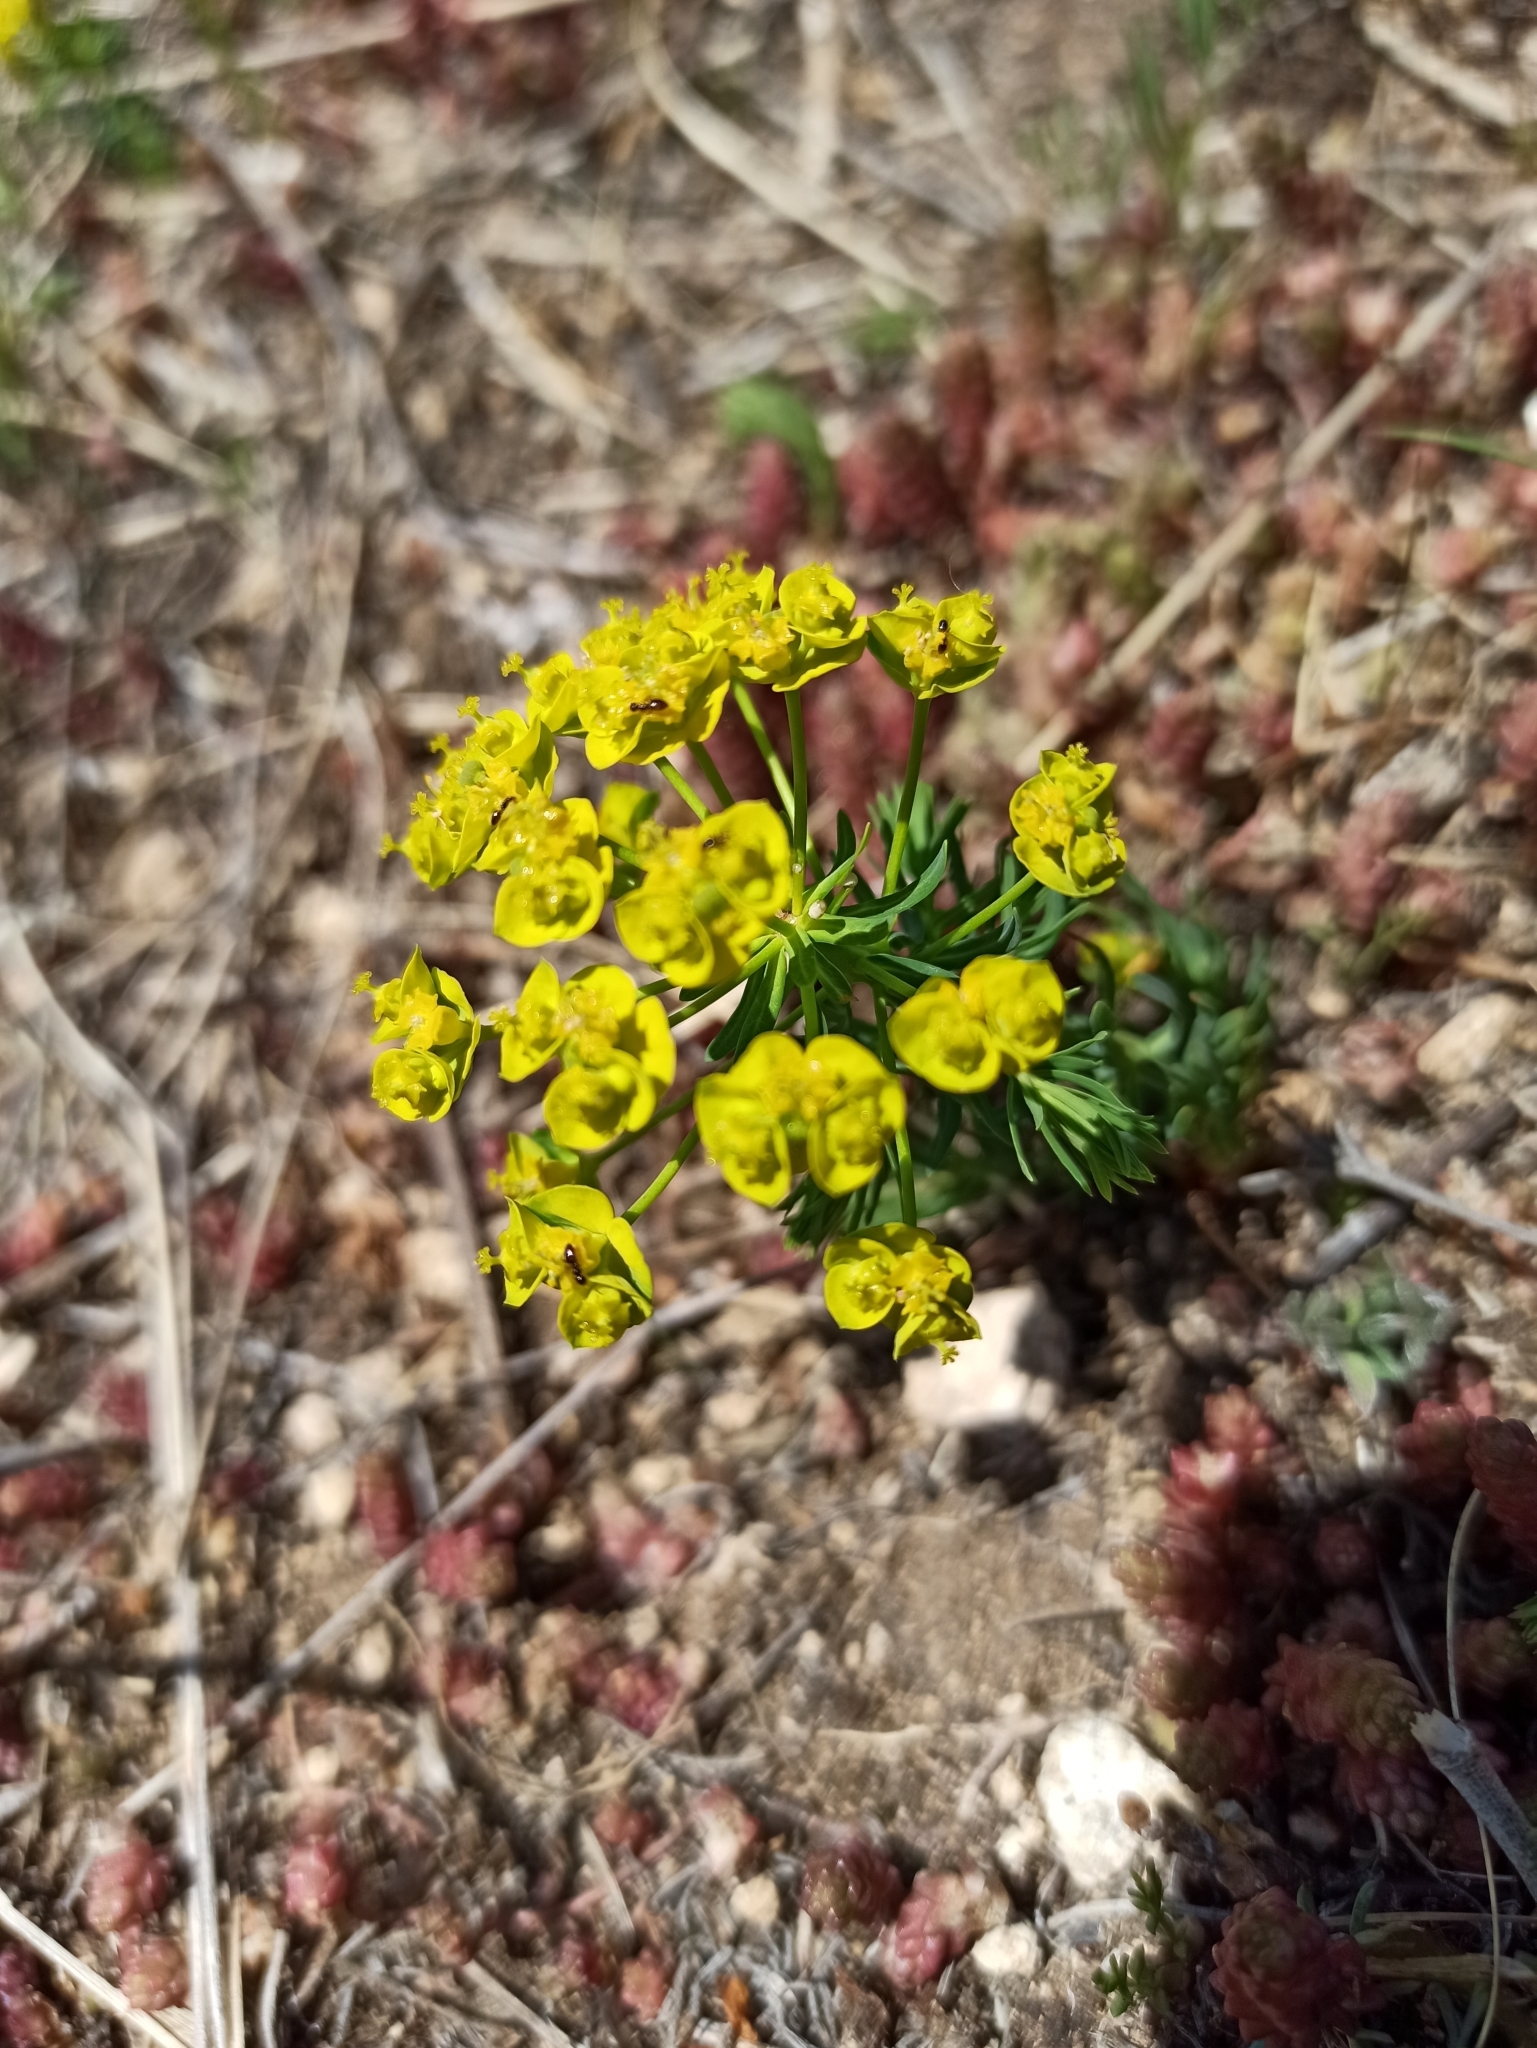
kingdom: Plantae
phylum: Tracheophyta
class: Magnoliopsida
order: Malpighiales
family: Euphorbiaceae
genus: Euphorbia
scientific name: Euphorbia cyparissias
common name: Cypress spurge
